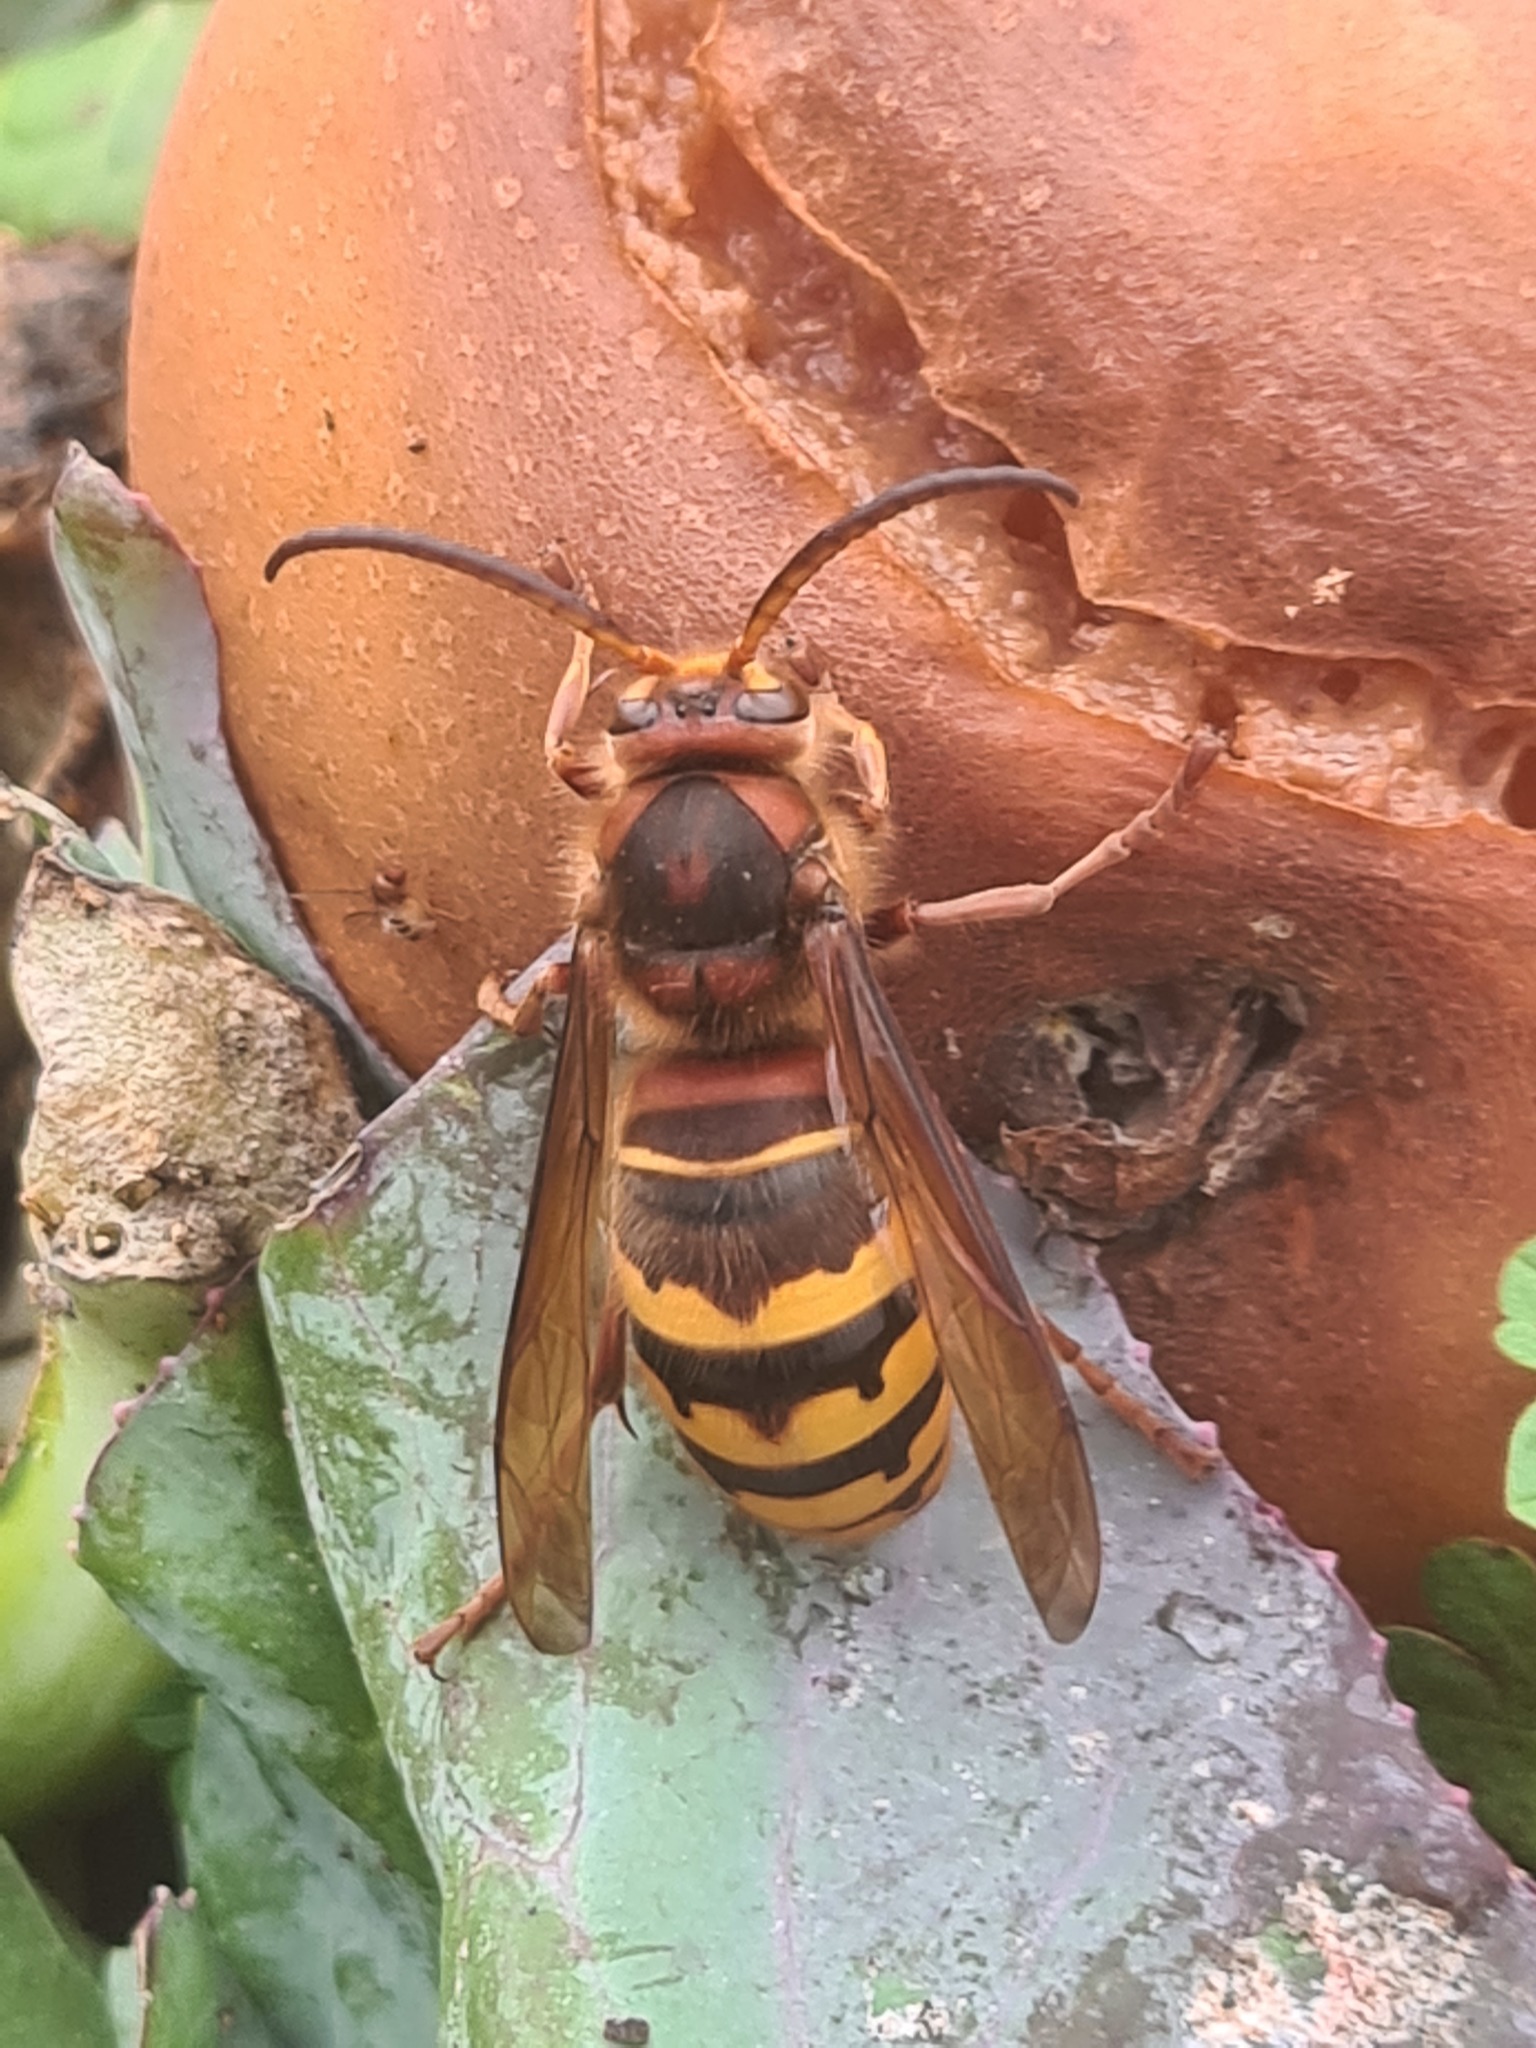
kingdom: Animalia
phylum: Arthropoda
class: Insecta
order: Hymenoptera
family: Vespidae
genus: Vespa
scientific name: Vespa crabro
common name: Hornet
